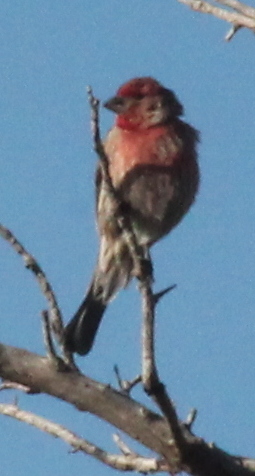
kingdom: Animalia
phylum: Chordata
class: Aves
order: Passeriformes
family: Fringillidae
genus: Haemorhous
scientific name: Haemorhous mexicanus
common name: House finch
